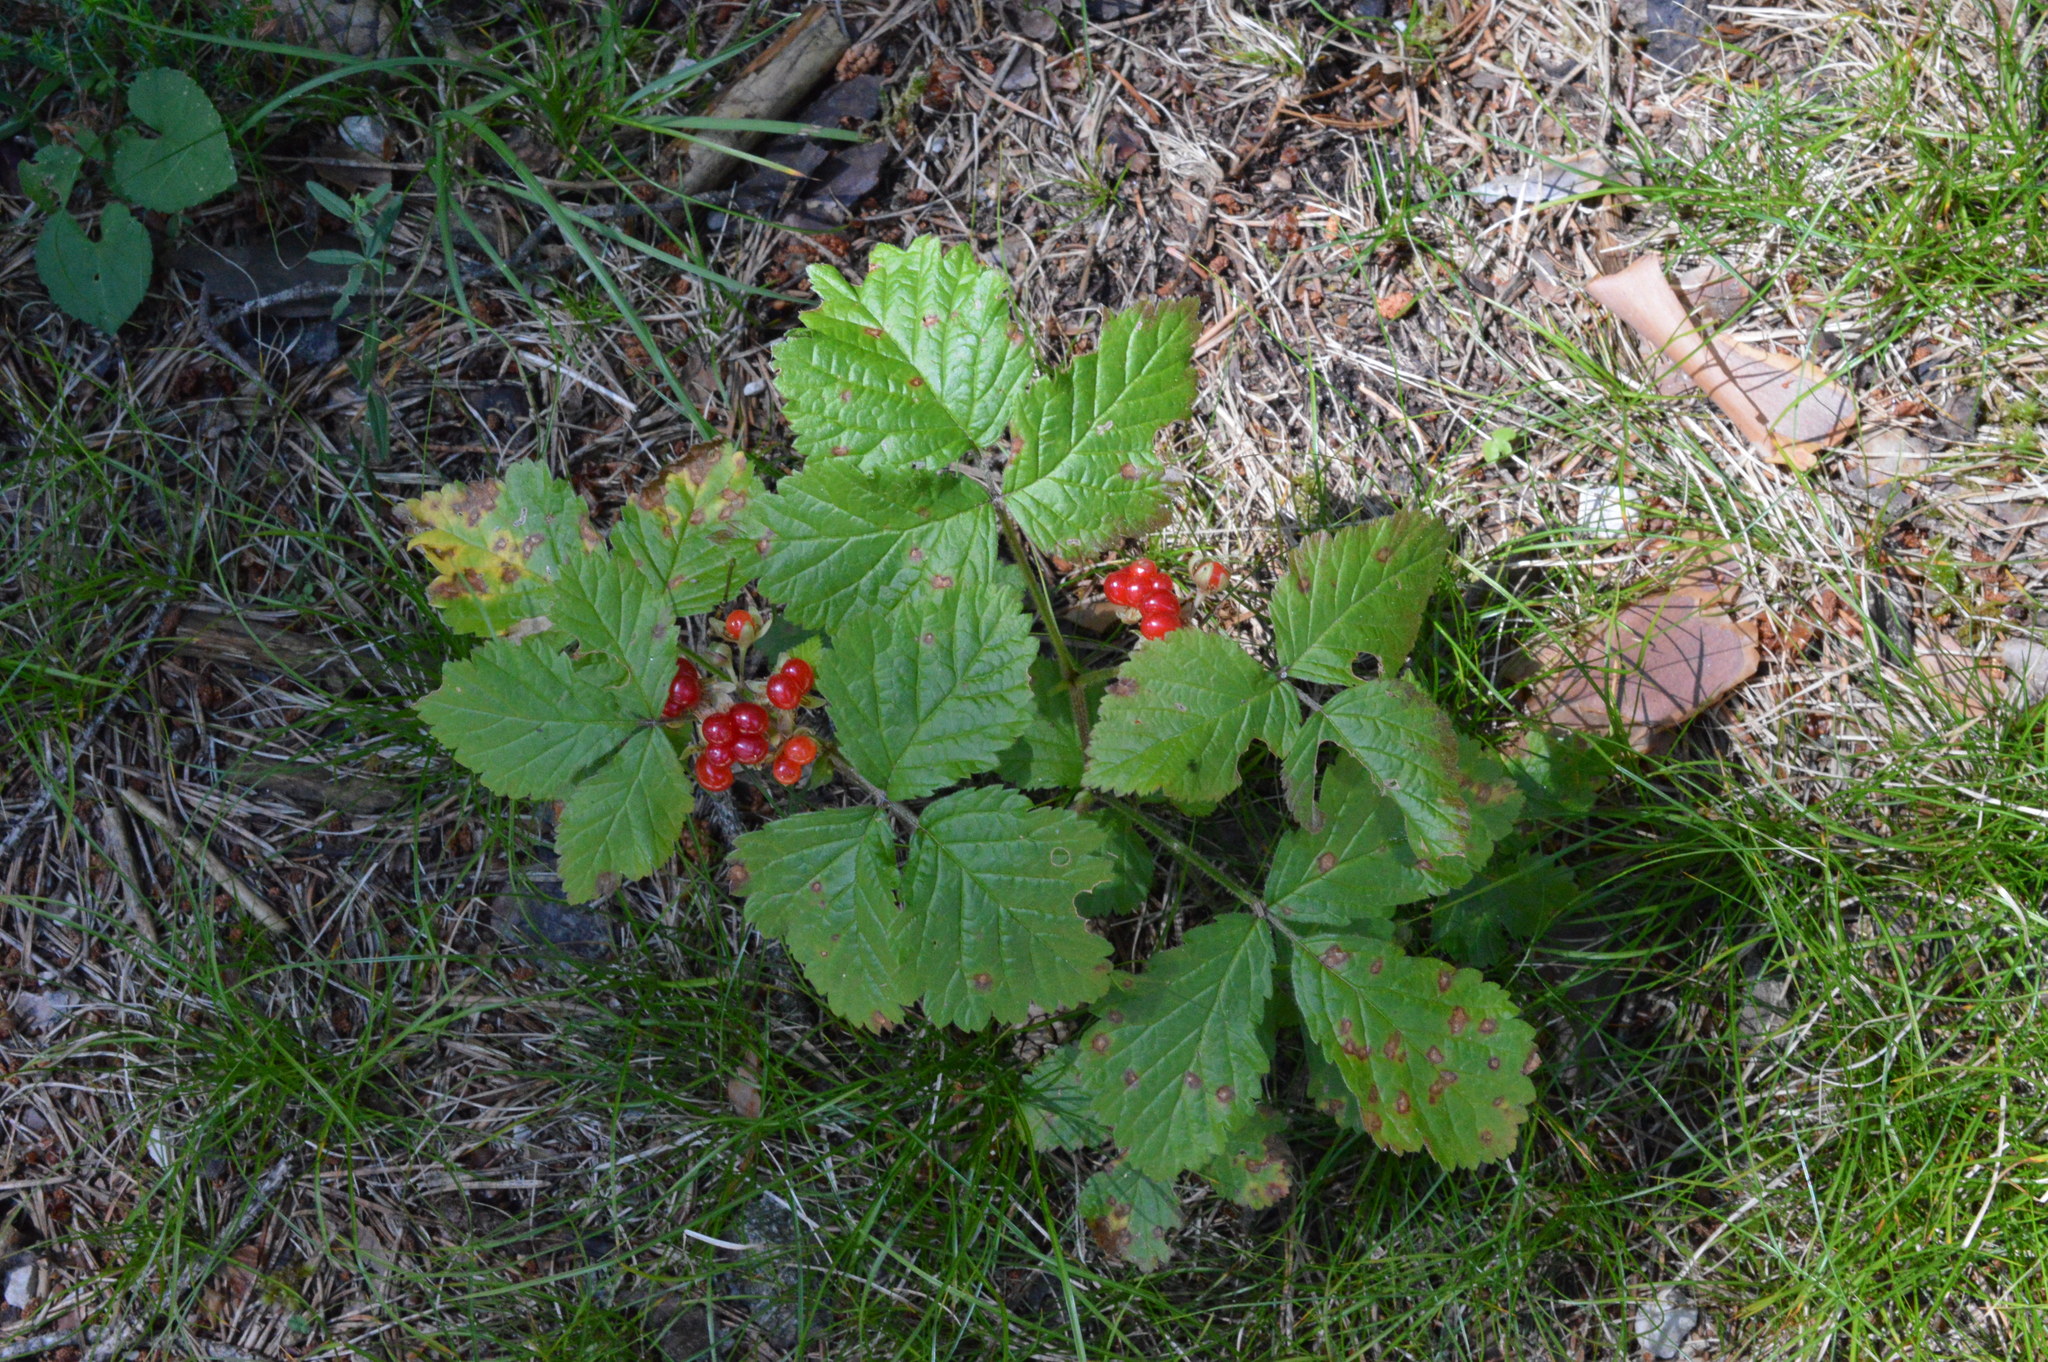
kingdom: Plantae
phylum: Tracheophyta
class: Magnoliopsida
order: Rosales
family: Rosaceae
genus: Rubus
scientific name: Rubus saxatilis
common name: Stone bramble
